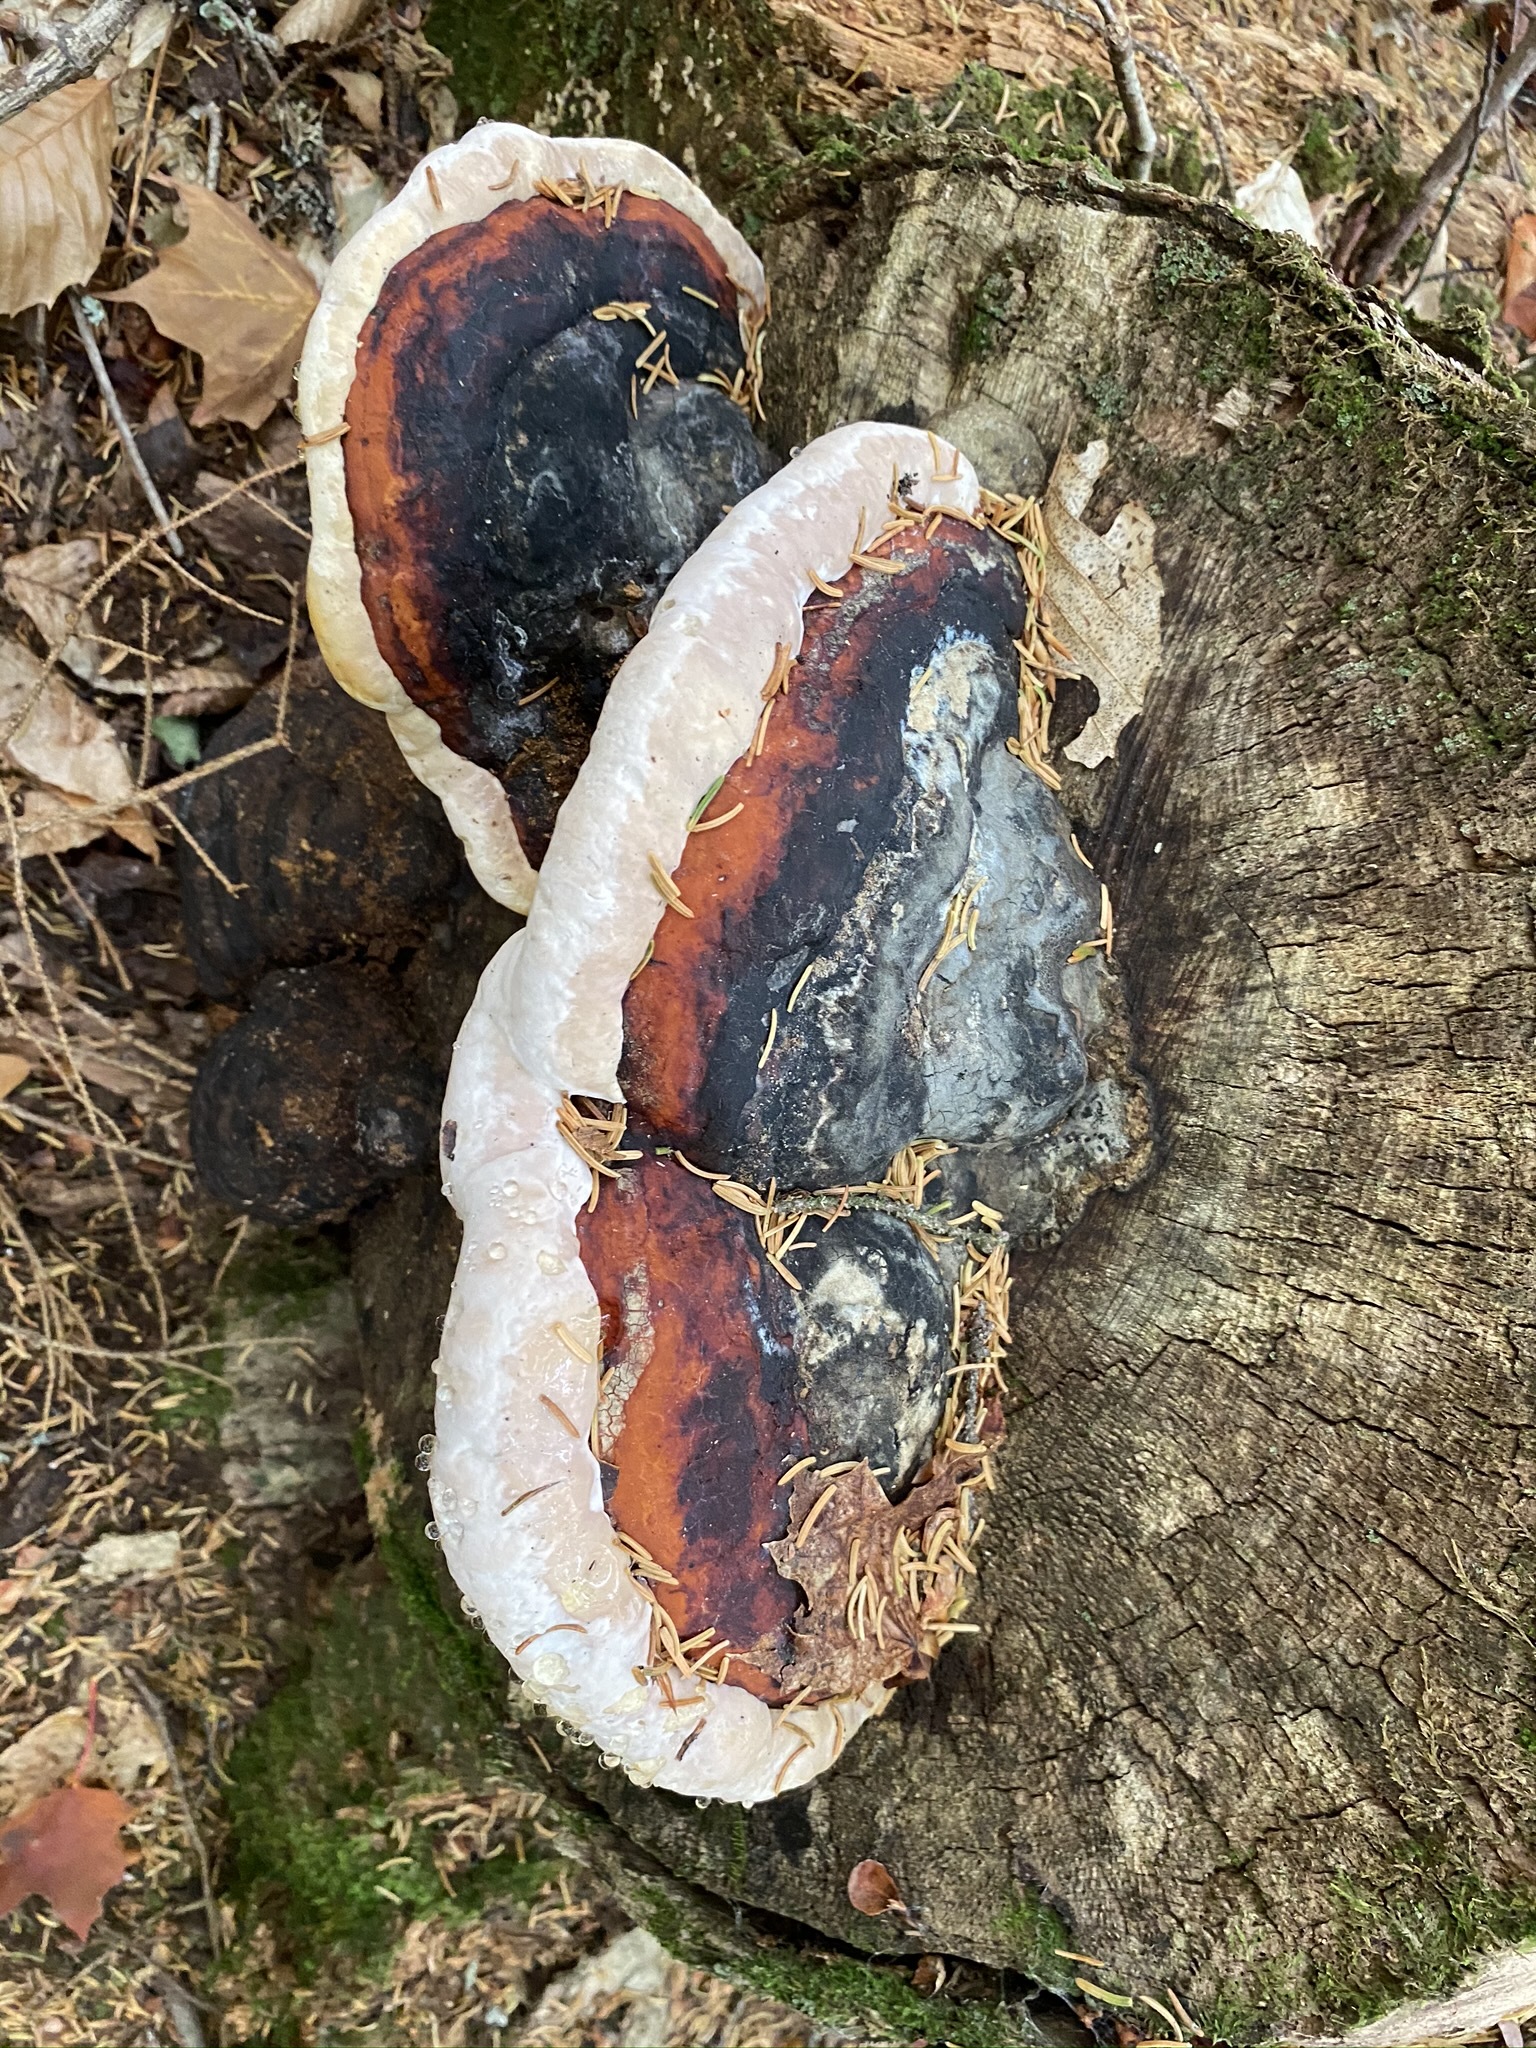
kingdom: Fungi
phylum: Basidiomycota
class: Agaricomycetes
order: Polyporales
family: Fomitopsidaceae
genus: Fomitopsis
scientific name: Fomitopsis mounceae
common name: Northern red belt
